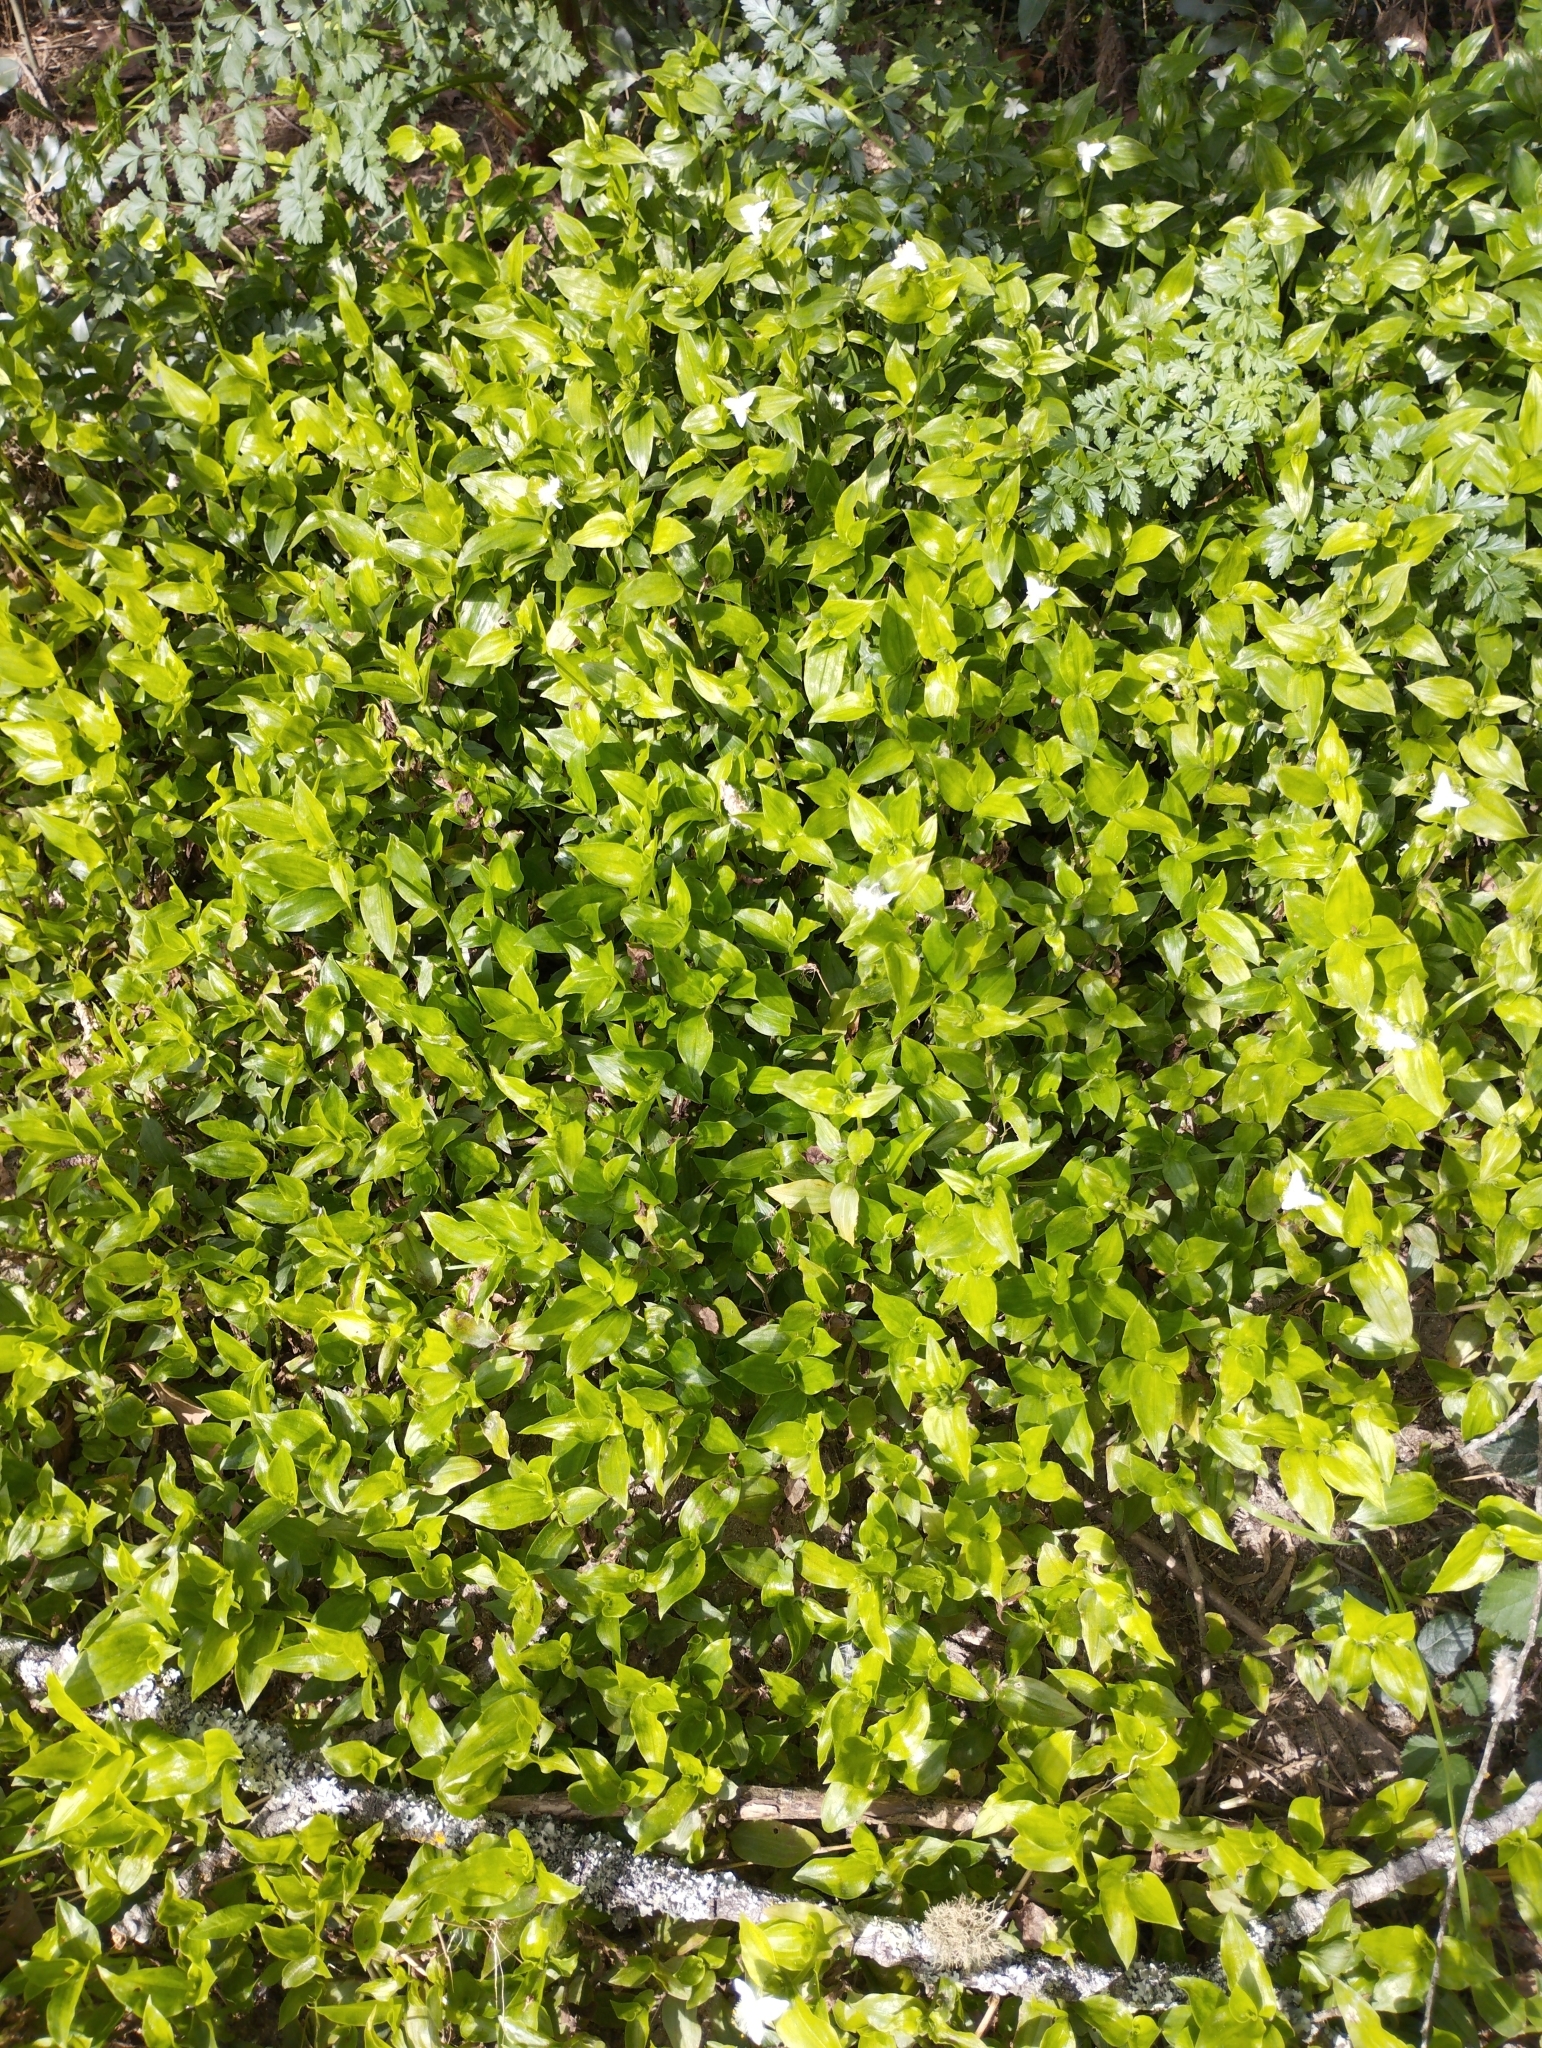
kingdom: Plantae
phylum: Tracheophyta
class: Liliopsida
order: Commelinales
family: Commelinaceae
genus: Tradescantia
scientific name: Tradescantia fluminensis
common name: Wandering-jew
